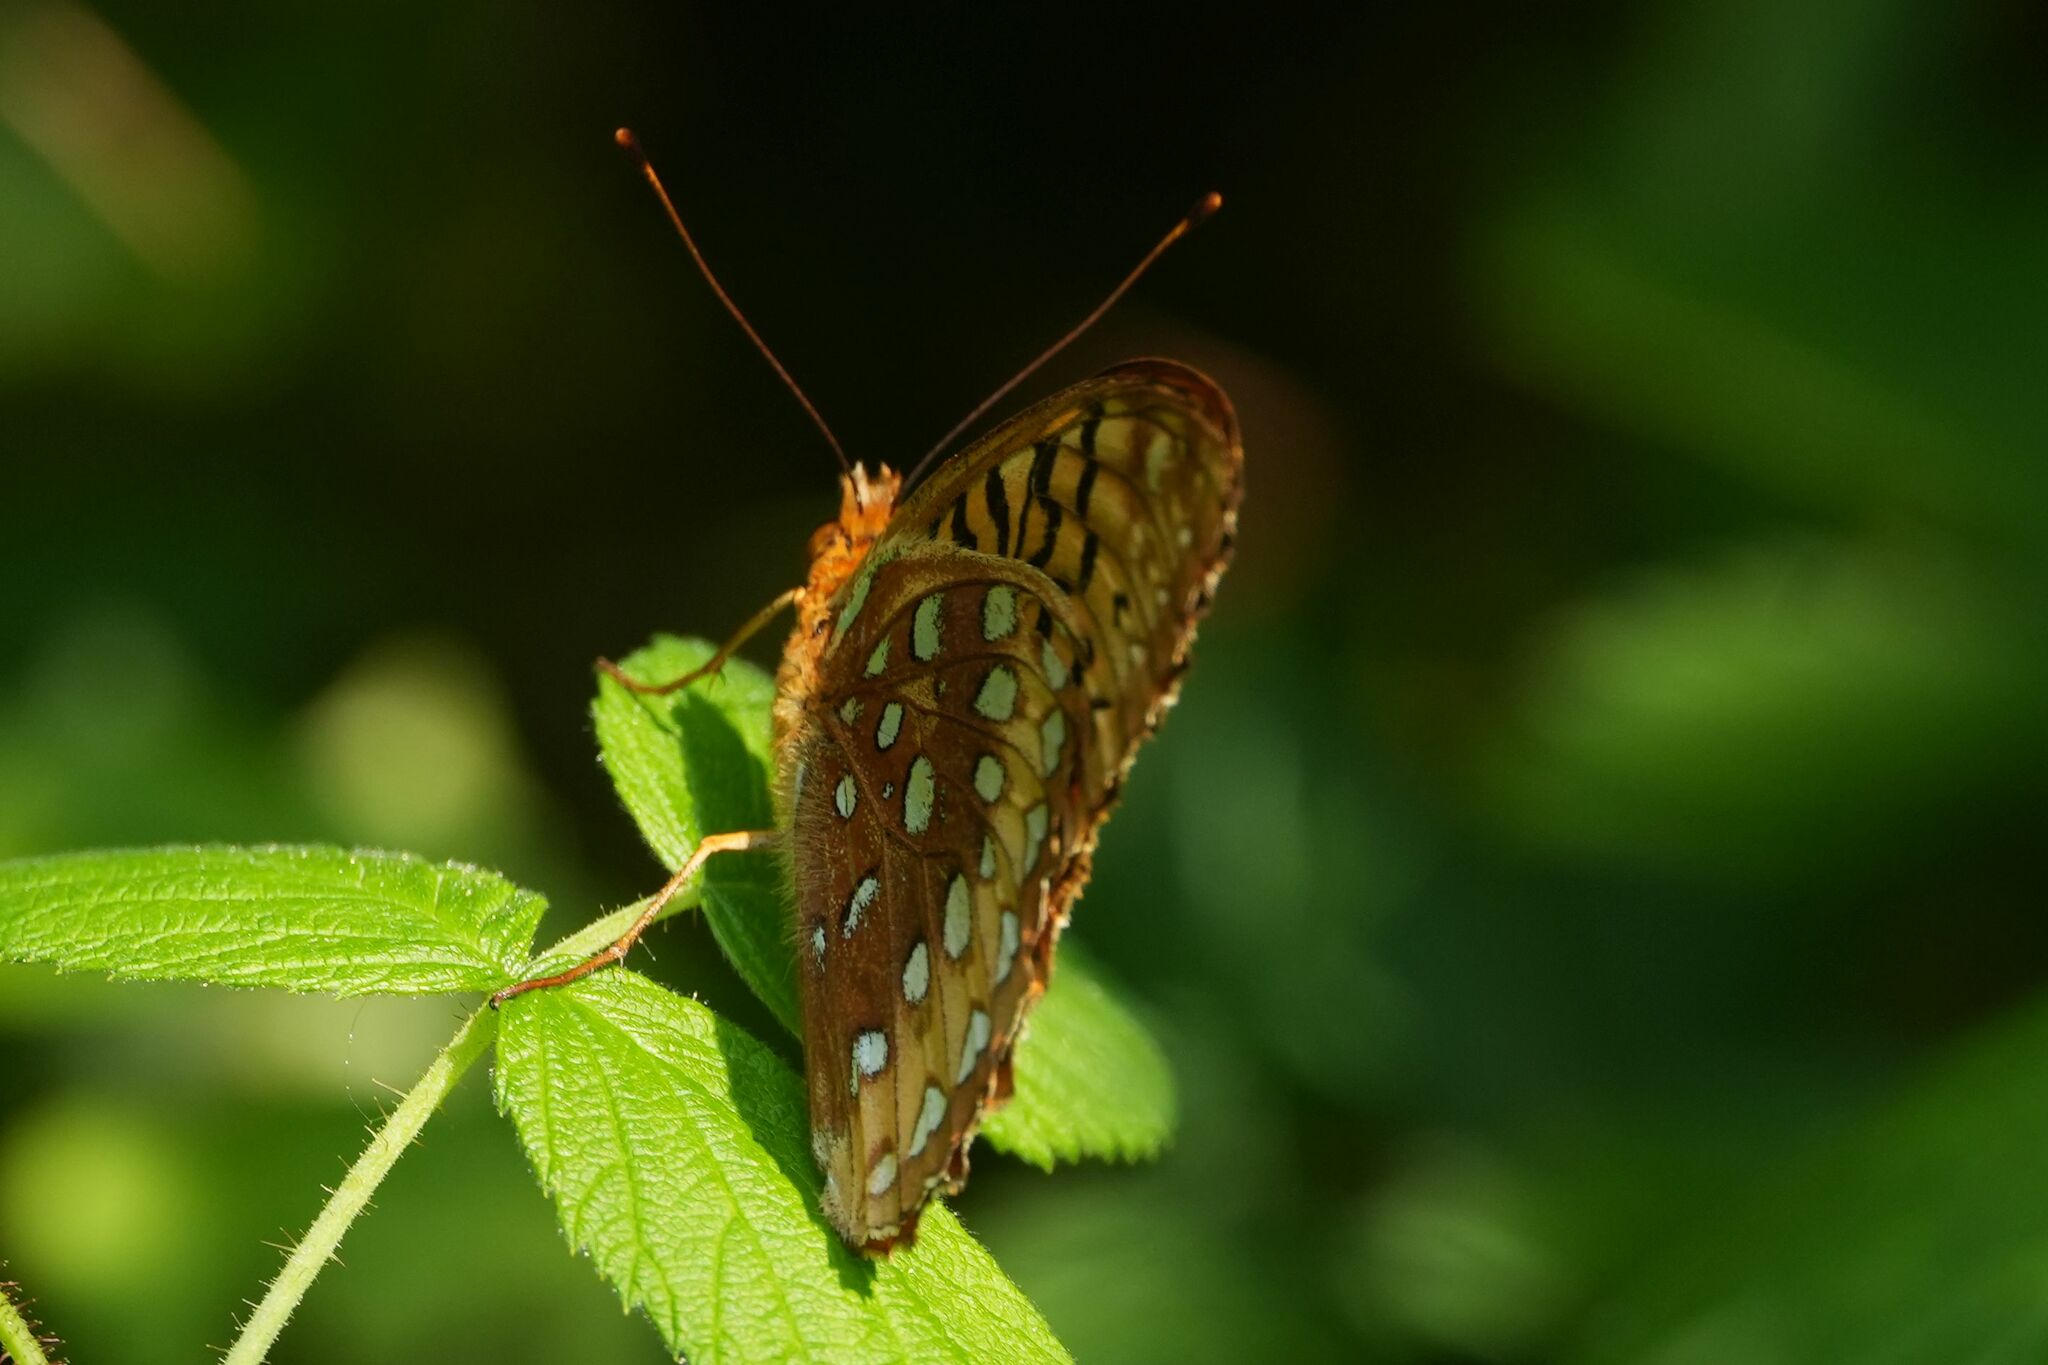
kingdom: Animalia
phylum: Arthropoda
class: Insecta
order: Lepidoptera
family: Nymphalidae
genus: Speyeria
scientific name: Speyeria cybele
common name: Great spangled fritillary
